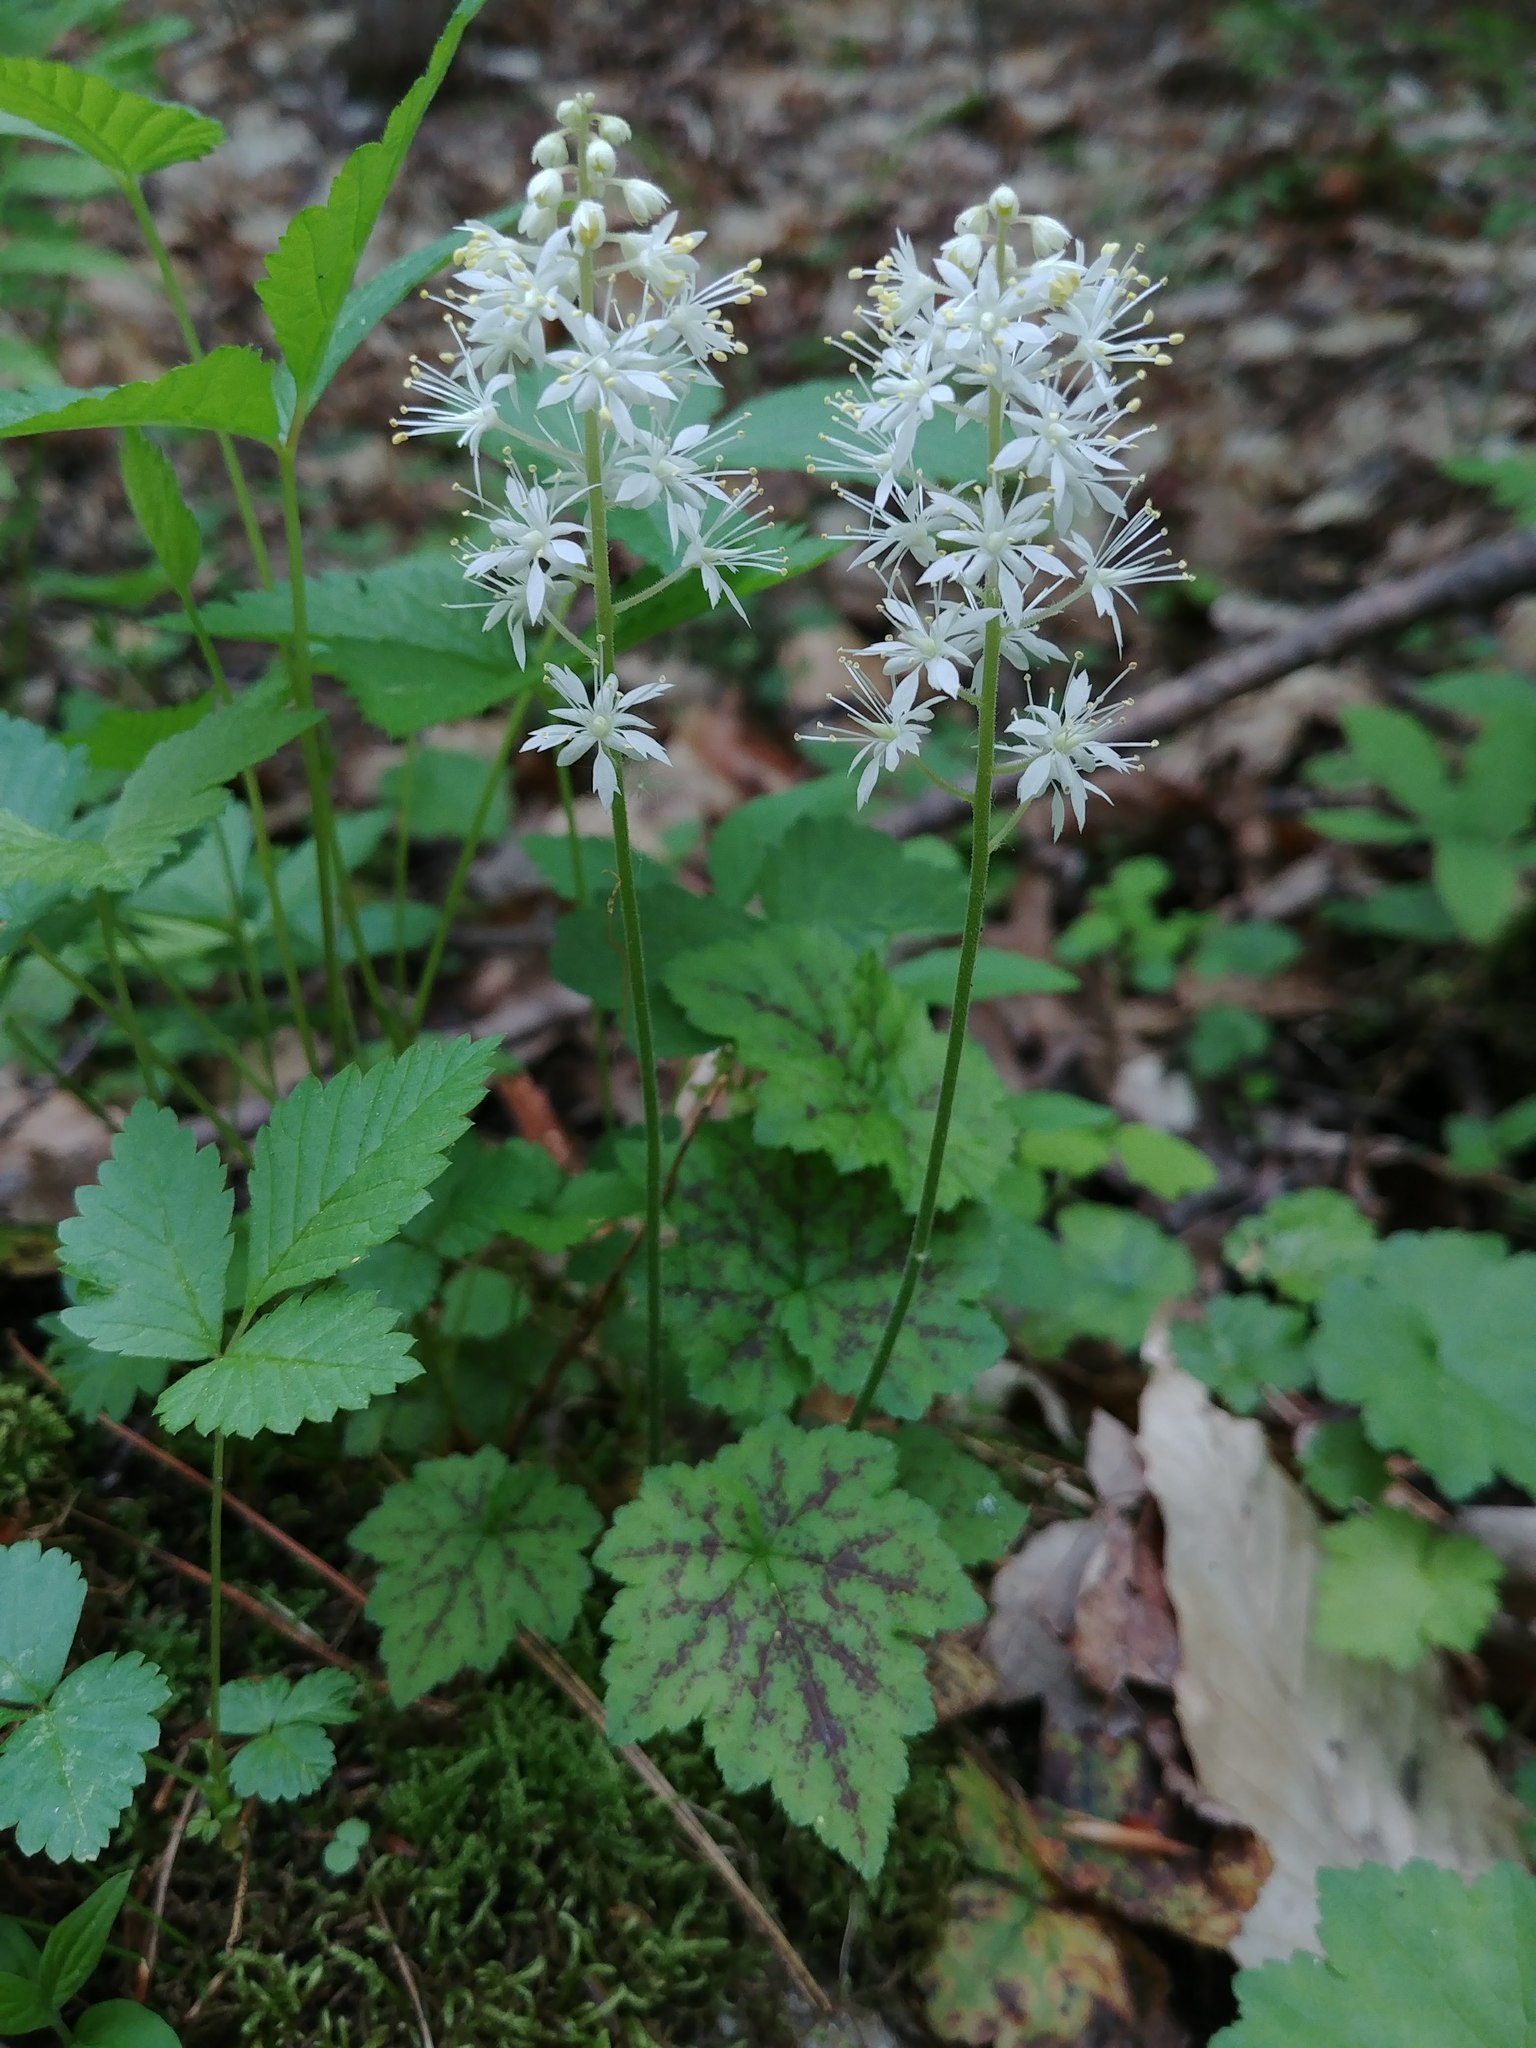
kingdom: Plantae
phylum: Tracheophyta
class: Magnoliopsida
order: Saxifragales
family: Saxifragaceae
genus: Tiarella
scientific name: Tiarella stolonifera
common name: Stoloniferous foamflower
